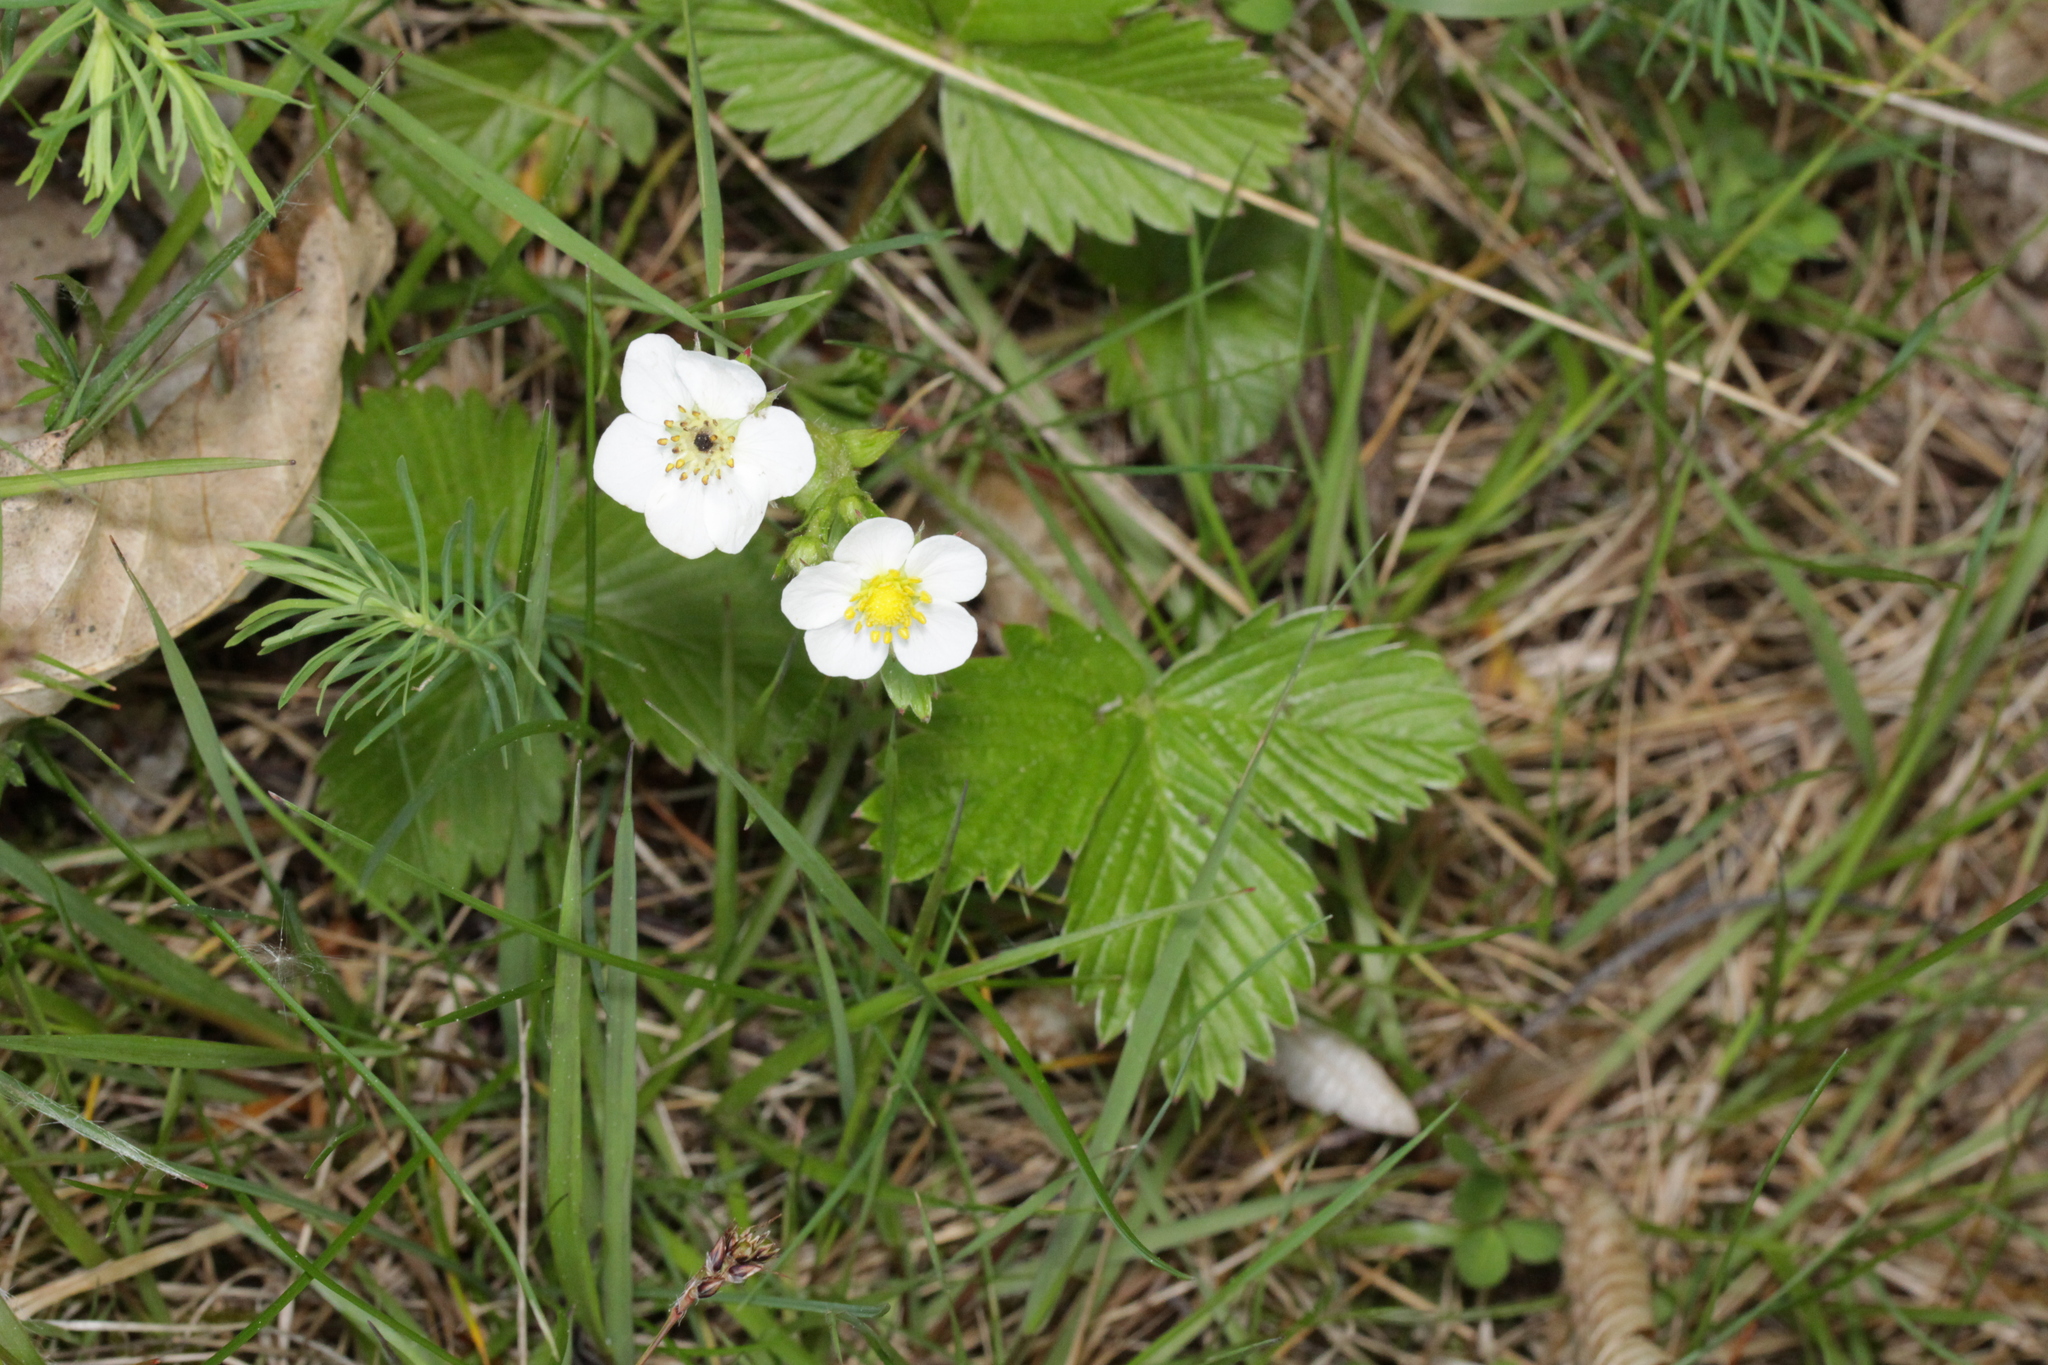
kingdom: Plantae
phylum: Tracheophyta
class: Magnoliopsida
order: Rosales
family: Rosaceae
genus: Fragaria
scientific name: Fragaria vesca
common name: Wild strawberry
